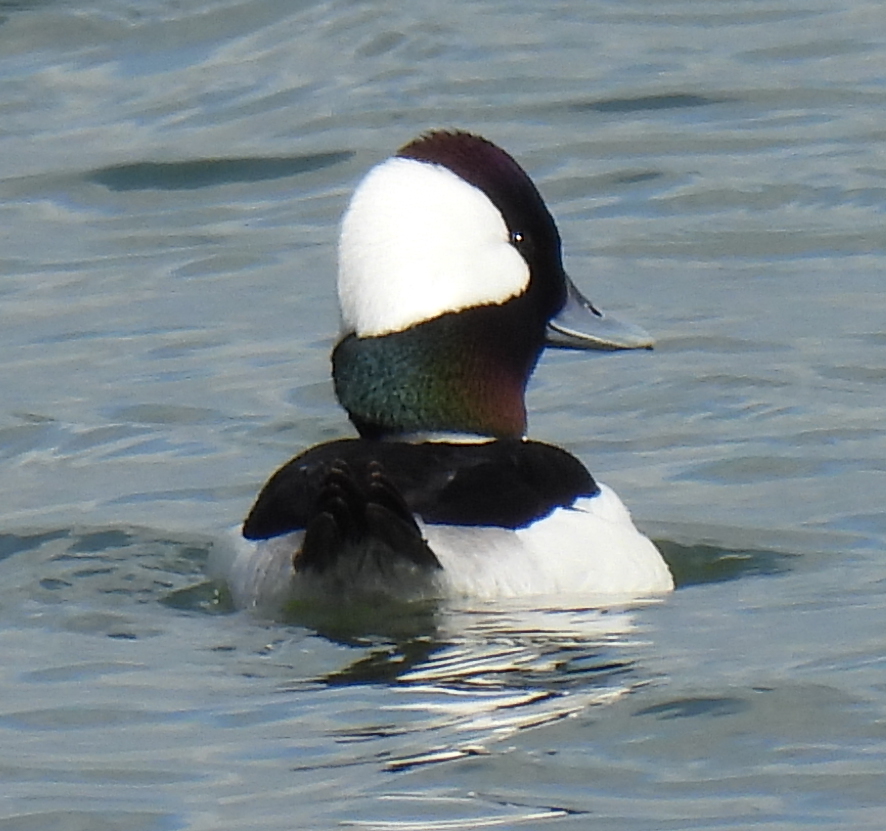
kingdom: Animalia
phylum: Chordata
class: Aves
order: Anseriformes
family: Anatidae
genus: Bucephala
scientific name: Bucephala albeola
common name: Bufflehead
